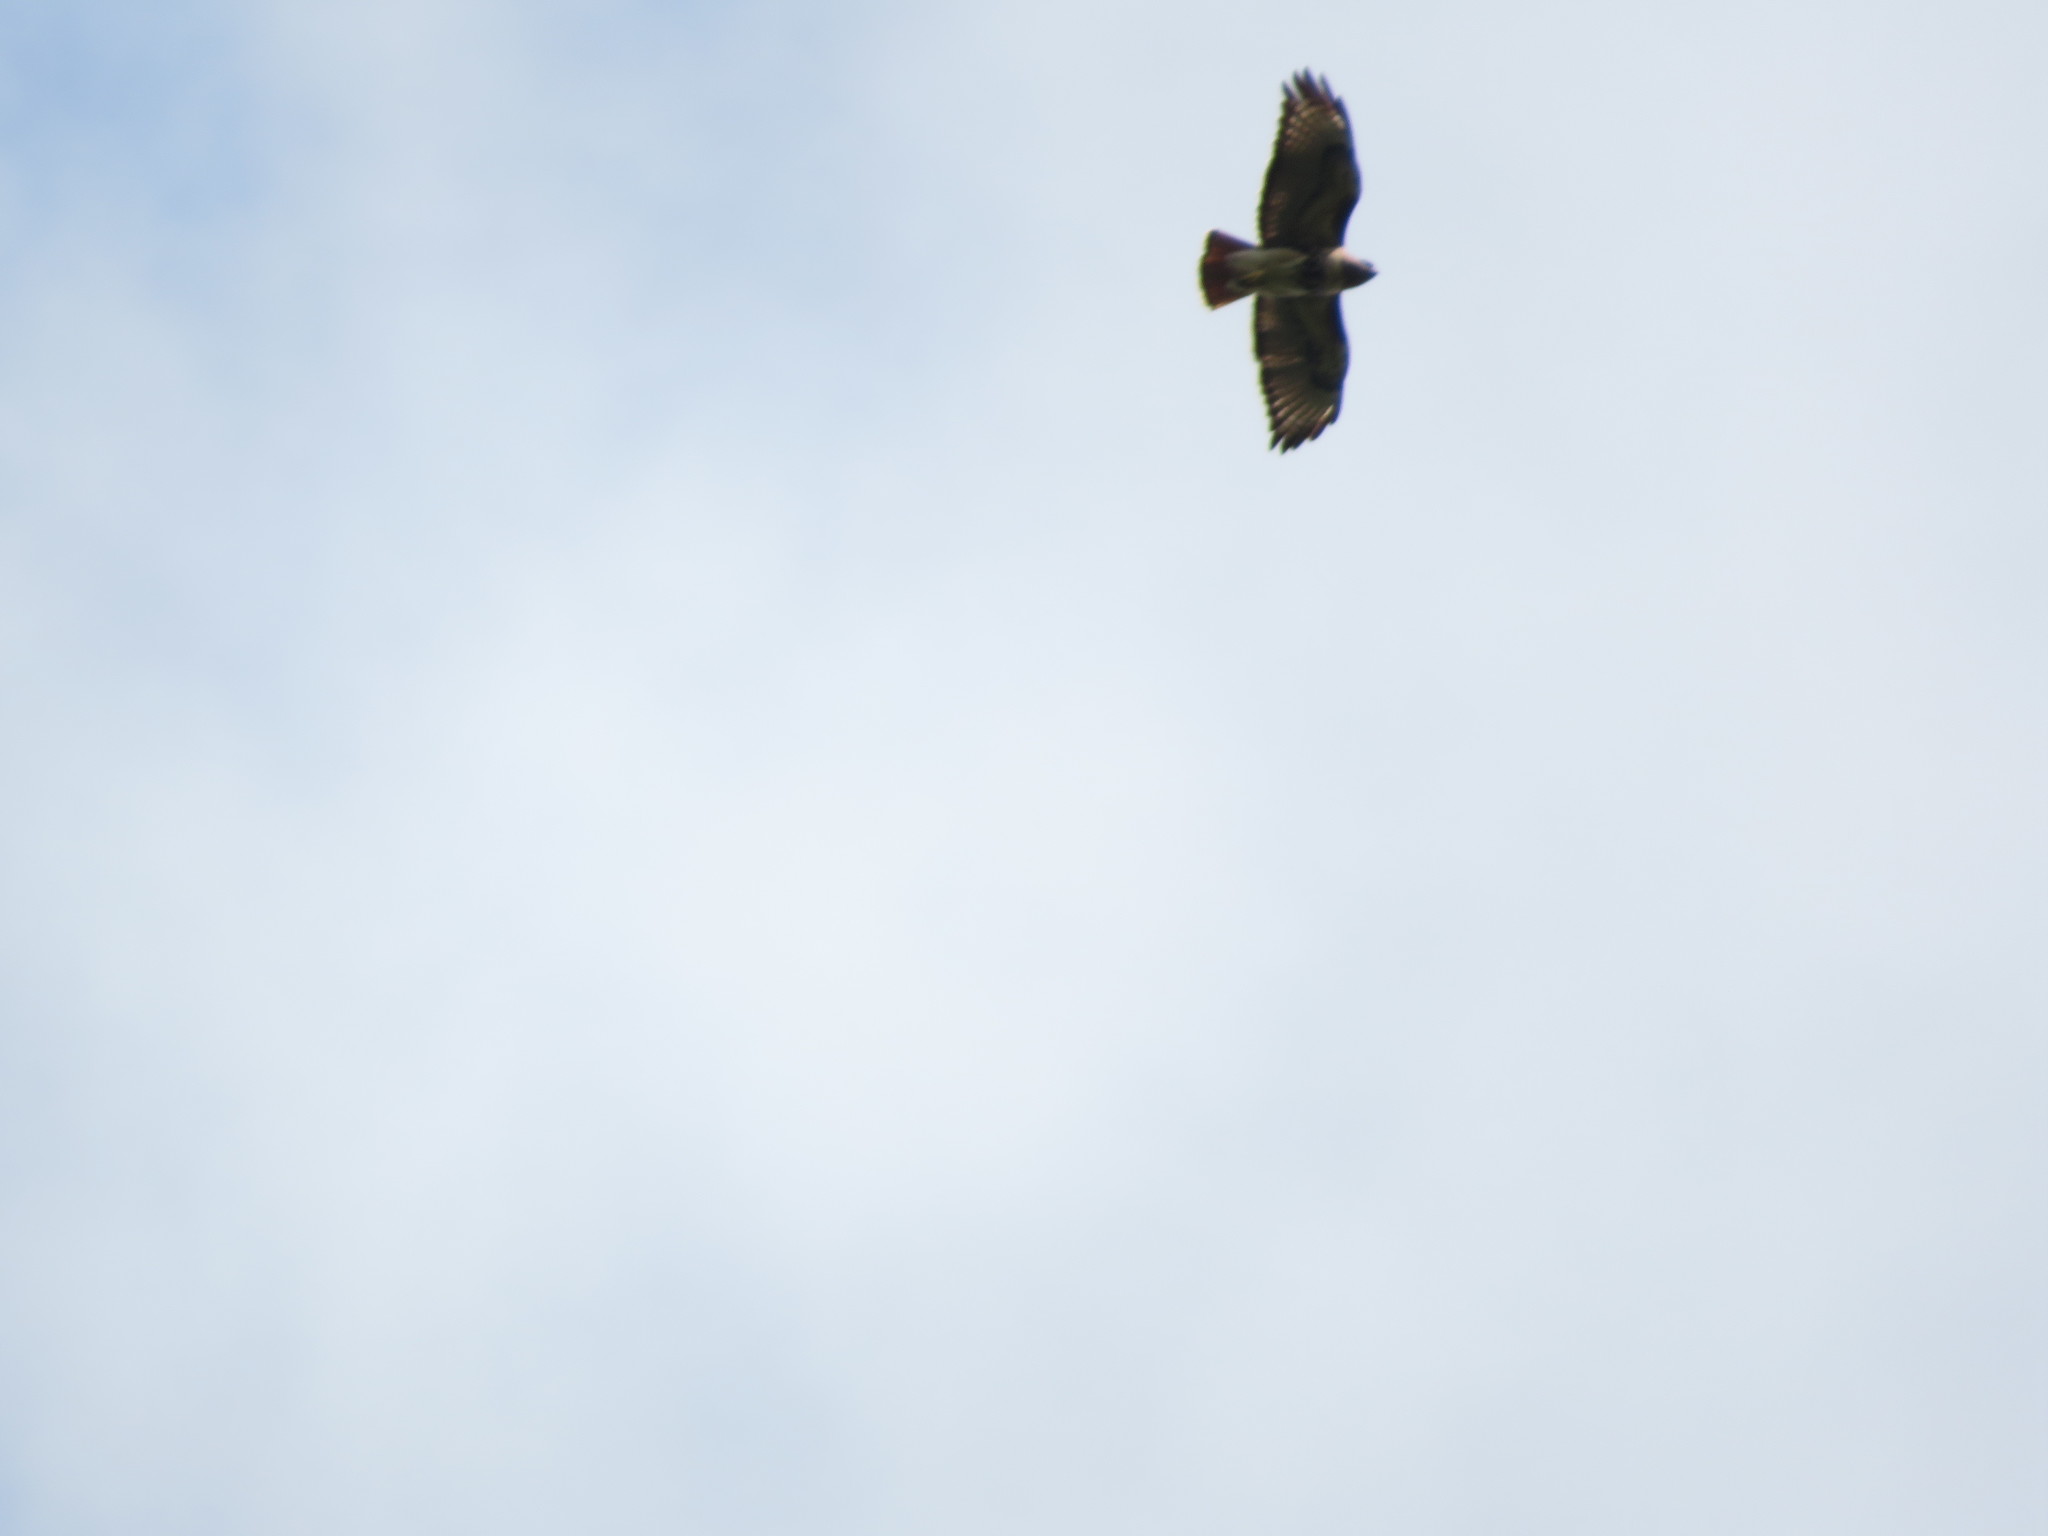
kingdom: Animalia
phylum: Chordata
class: Aves
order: Accipitriformes
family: Accipitridae
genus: Buteo
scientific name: Buteo jamaicensis
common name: Red-tailed hawk
